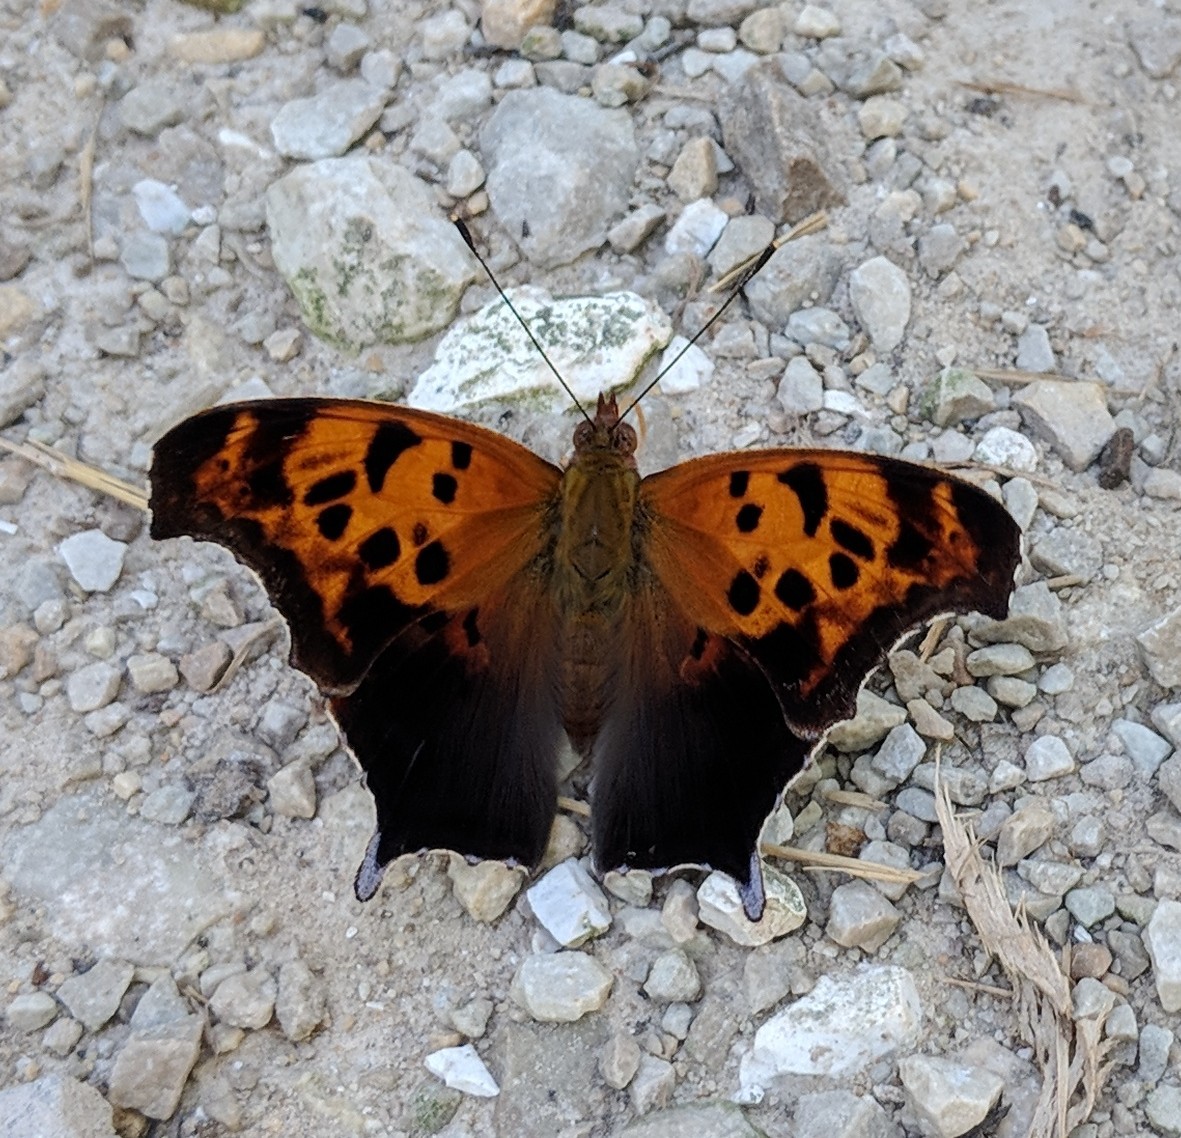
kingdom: Animalia
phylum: Arthropoda
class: Insecta
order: Lepidoptera
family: Nymphalidae
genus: Polygonia
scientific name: Polygonia interrogationis
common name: Question mark
